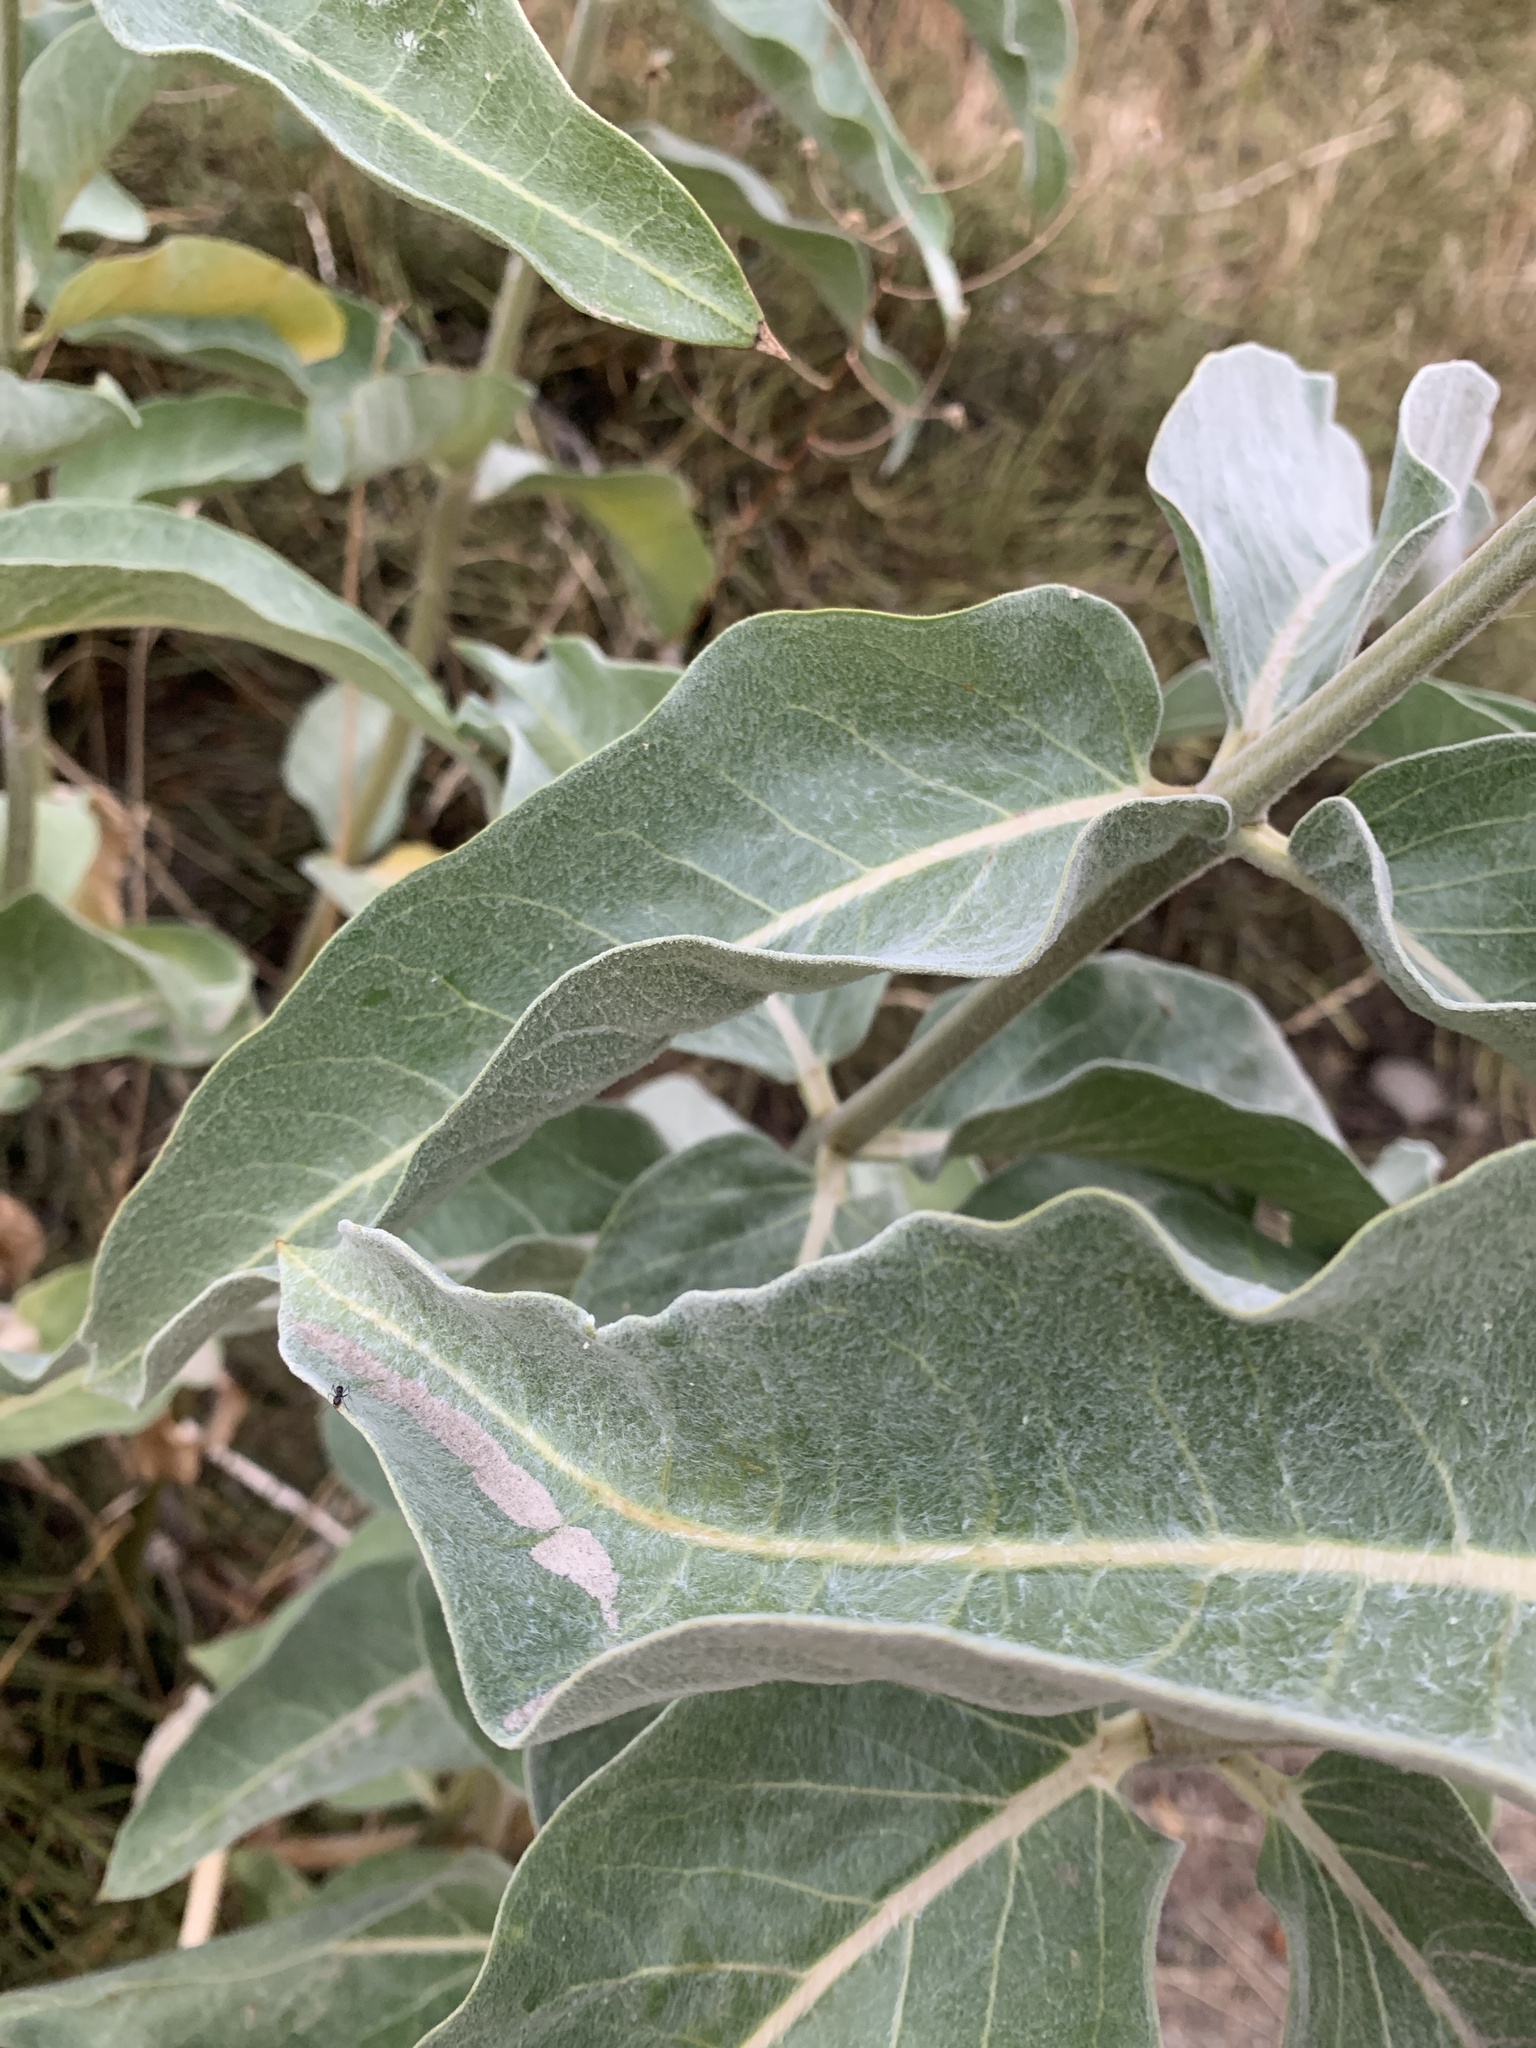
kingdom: Plantae
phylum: Tracheophyta
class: Magnoliopsida
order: Gentianales
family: Apocynaceae
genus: Asclepias
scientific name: Asclepias eriocarpa
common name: Indian milkweed
